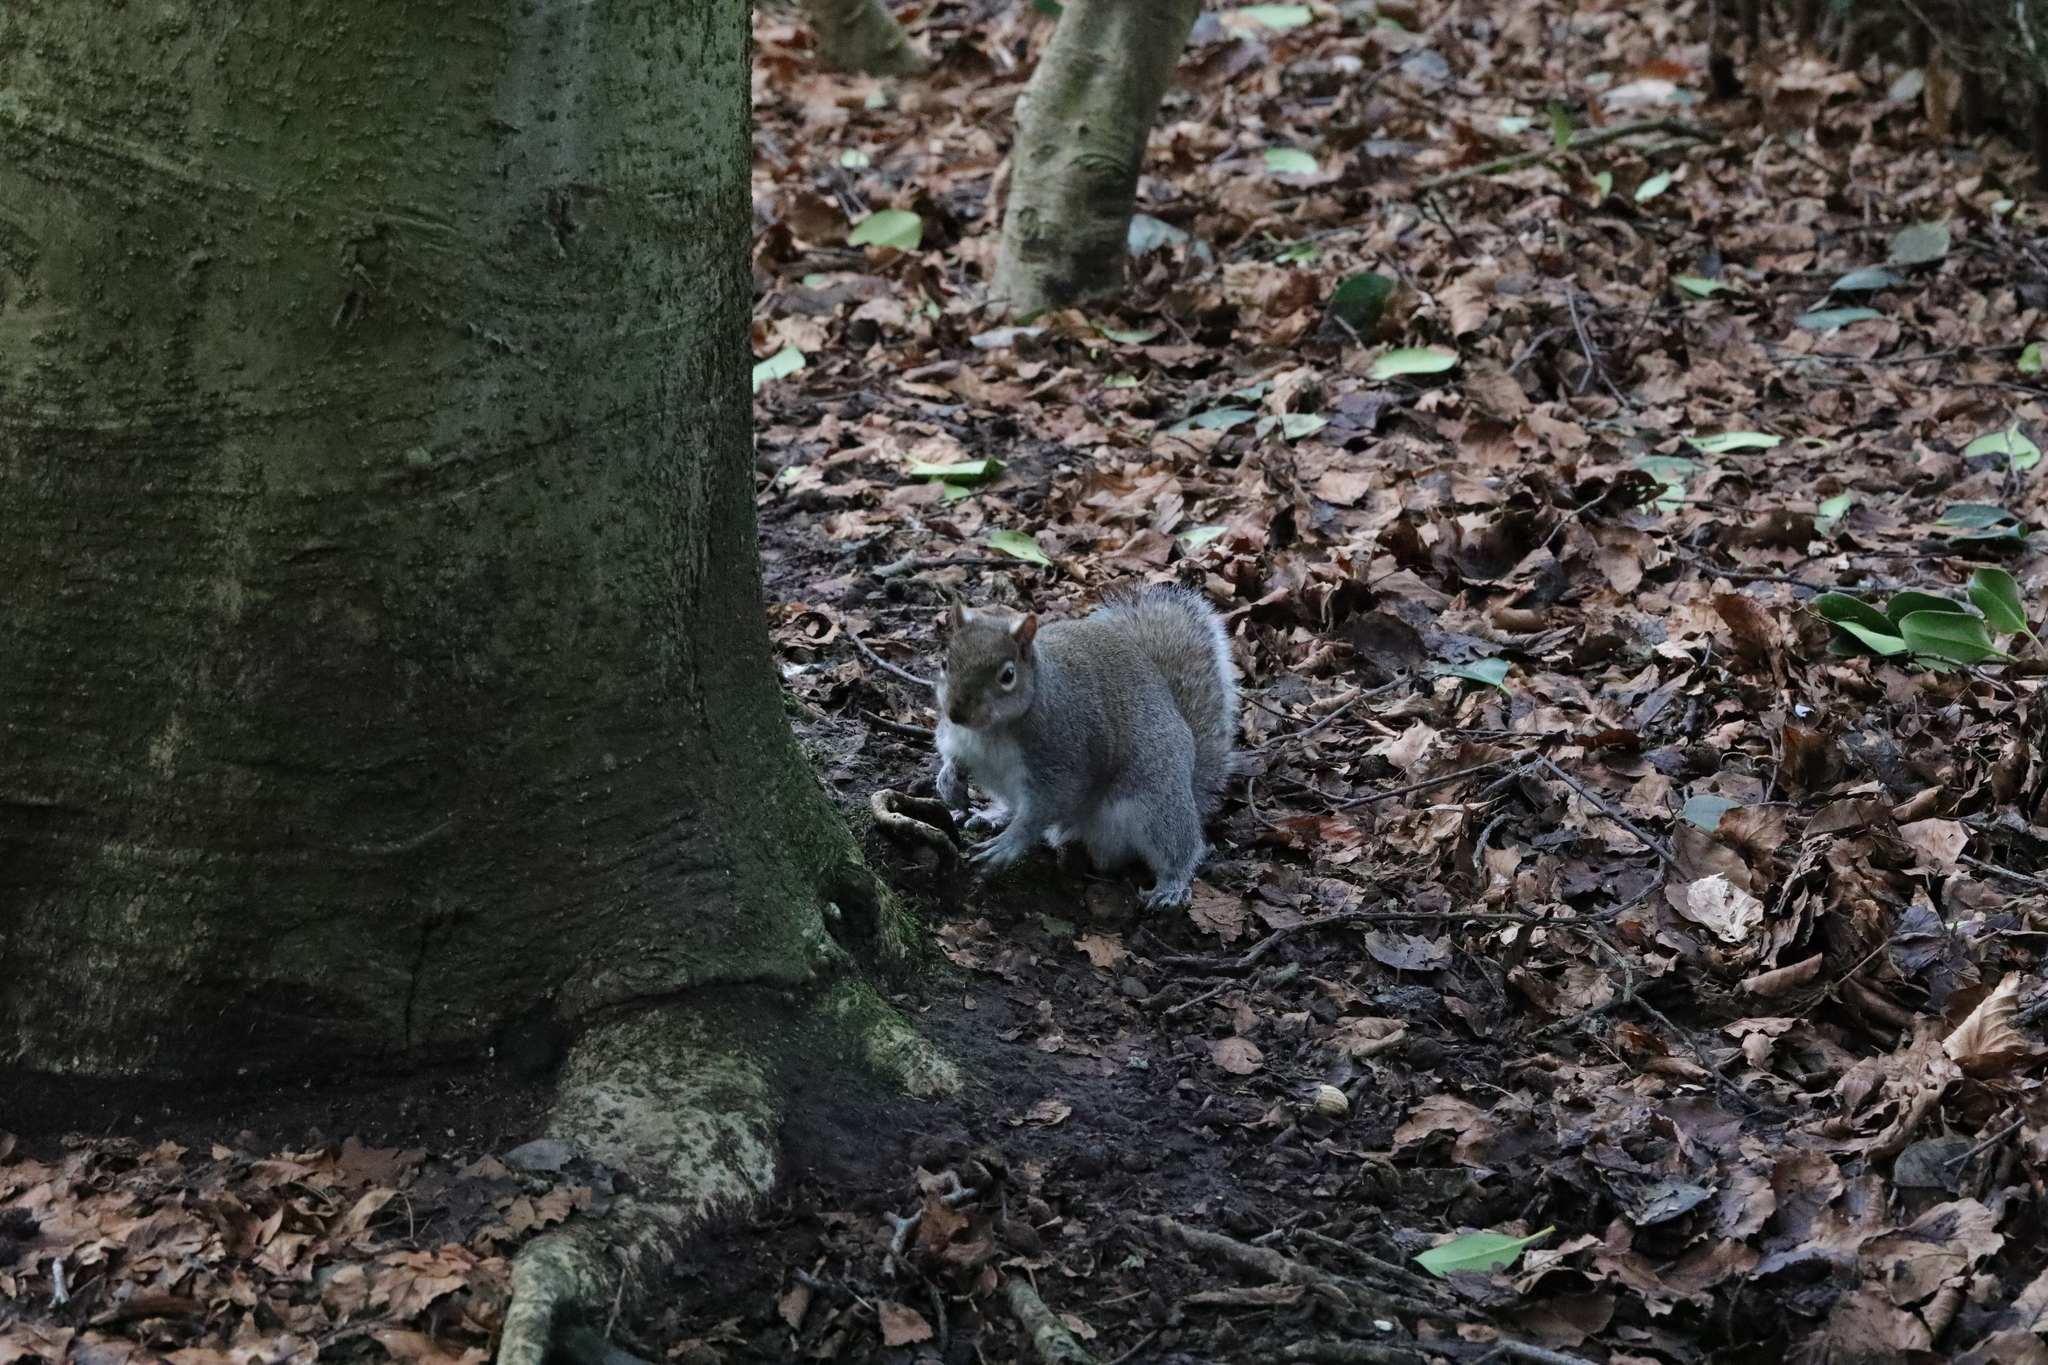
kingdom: Animalia
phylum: Chordata
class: Mammalia
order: Rodentia
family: Sciuridae
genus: Sciurus
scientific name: Sciurus carolinensis
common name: Eastern gray squirrel
